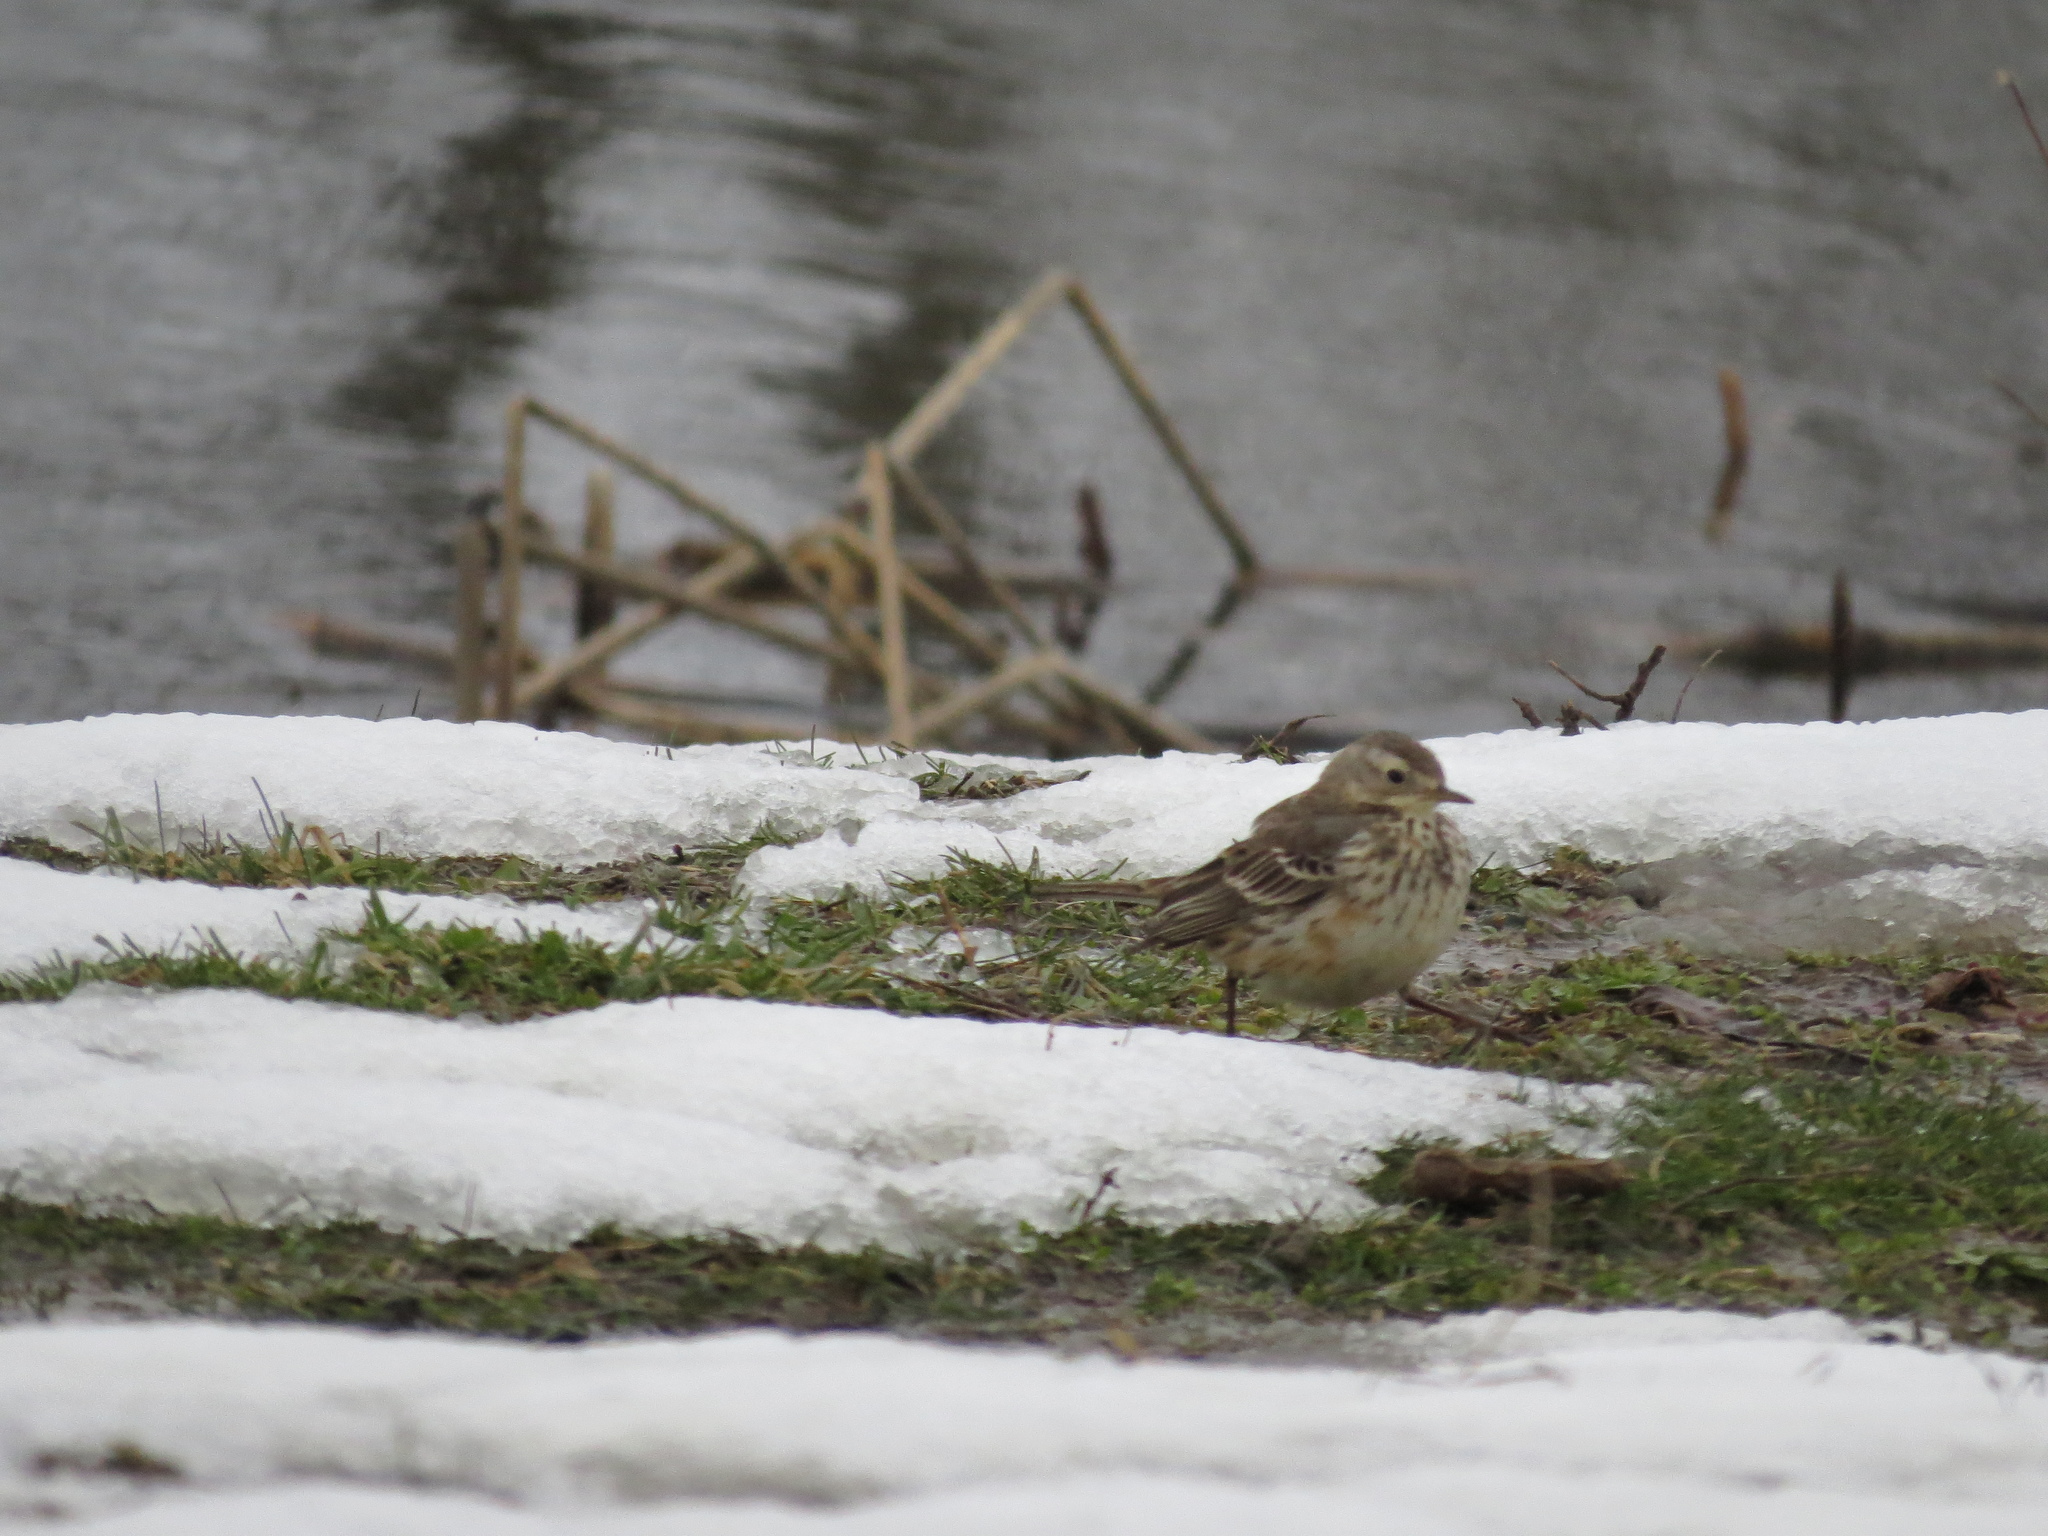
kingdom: Animalia
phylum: Chordata
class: Aves
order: Passeriformes
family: Motacillidae
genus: Anthus
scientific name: Anthus rubescens
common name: Buff-bellied pipit
